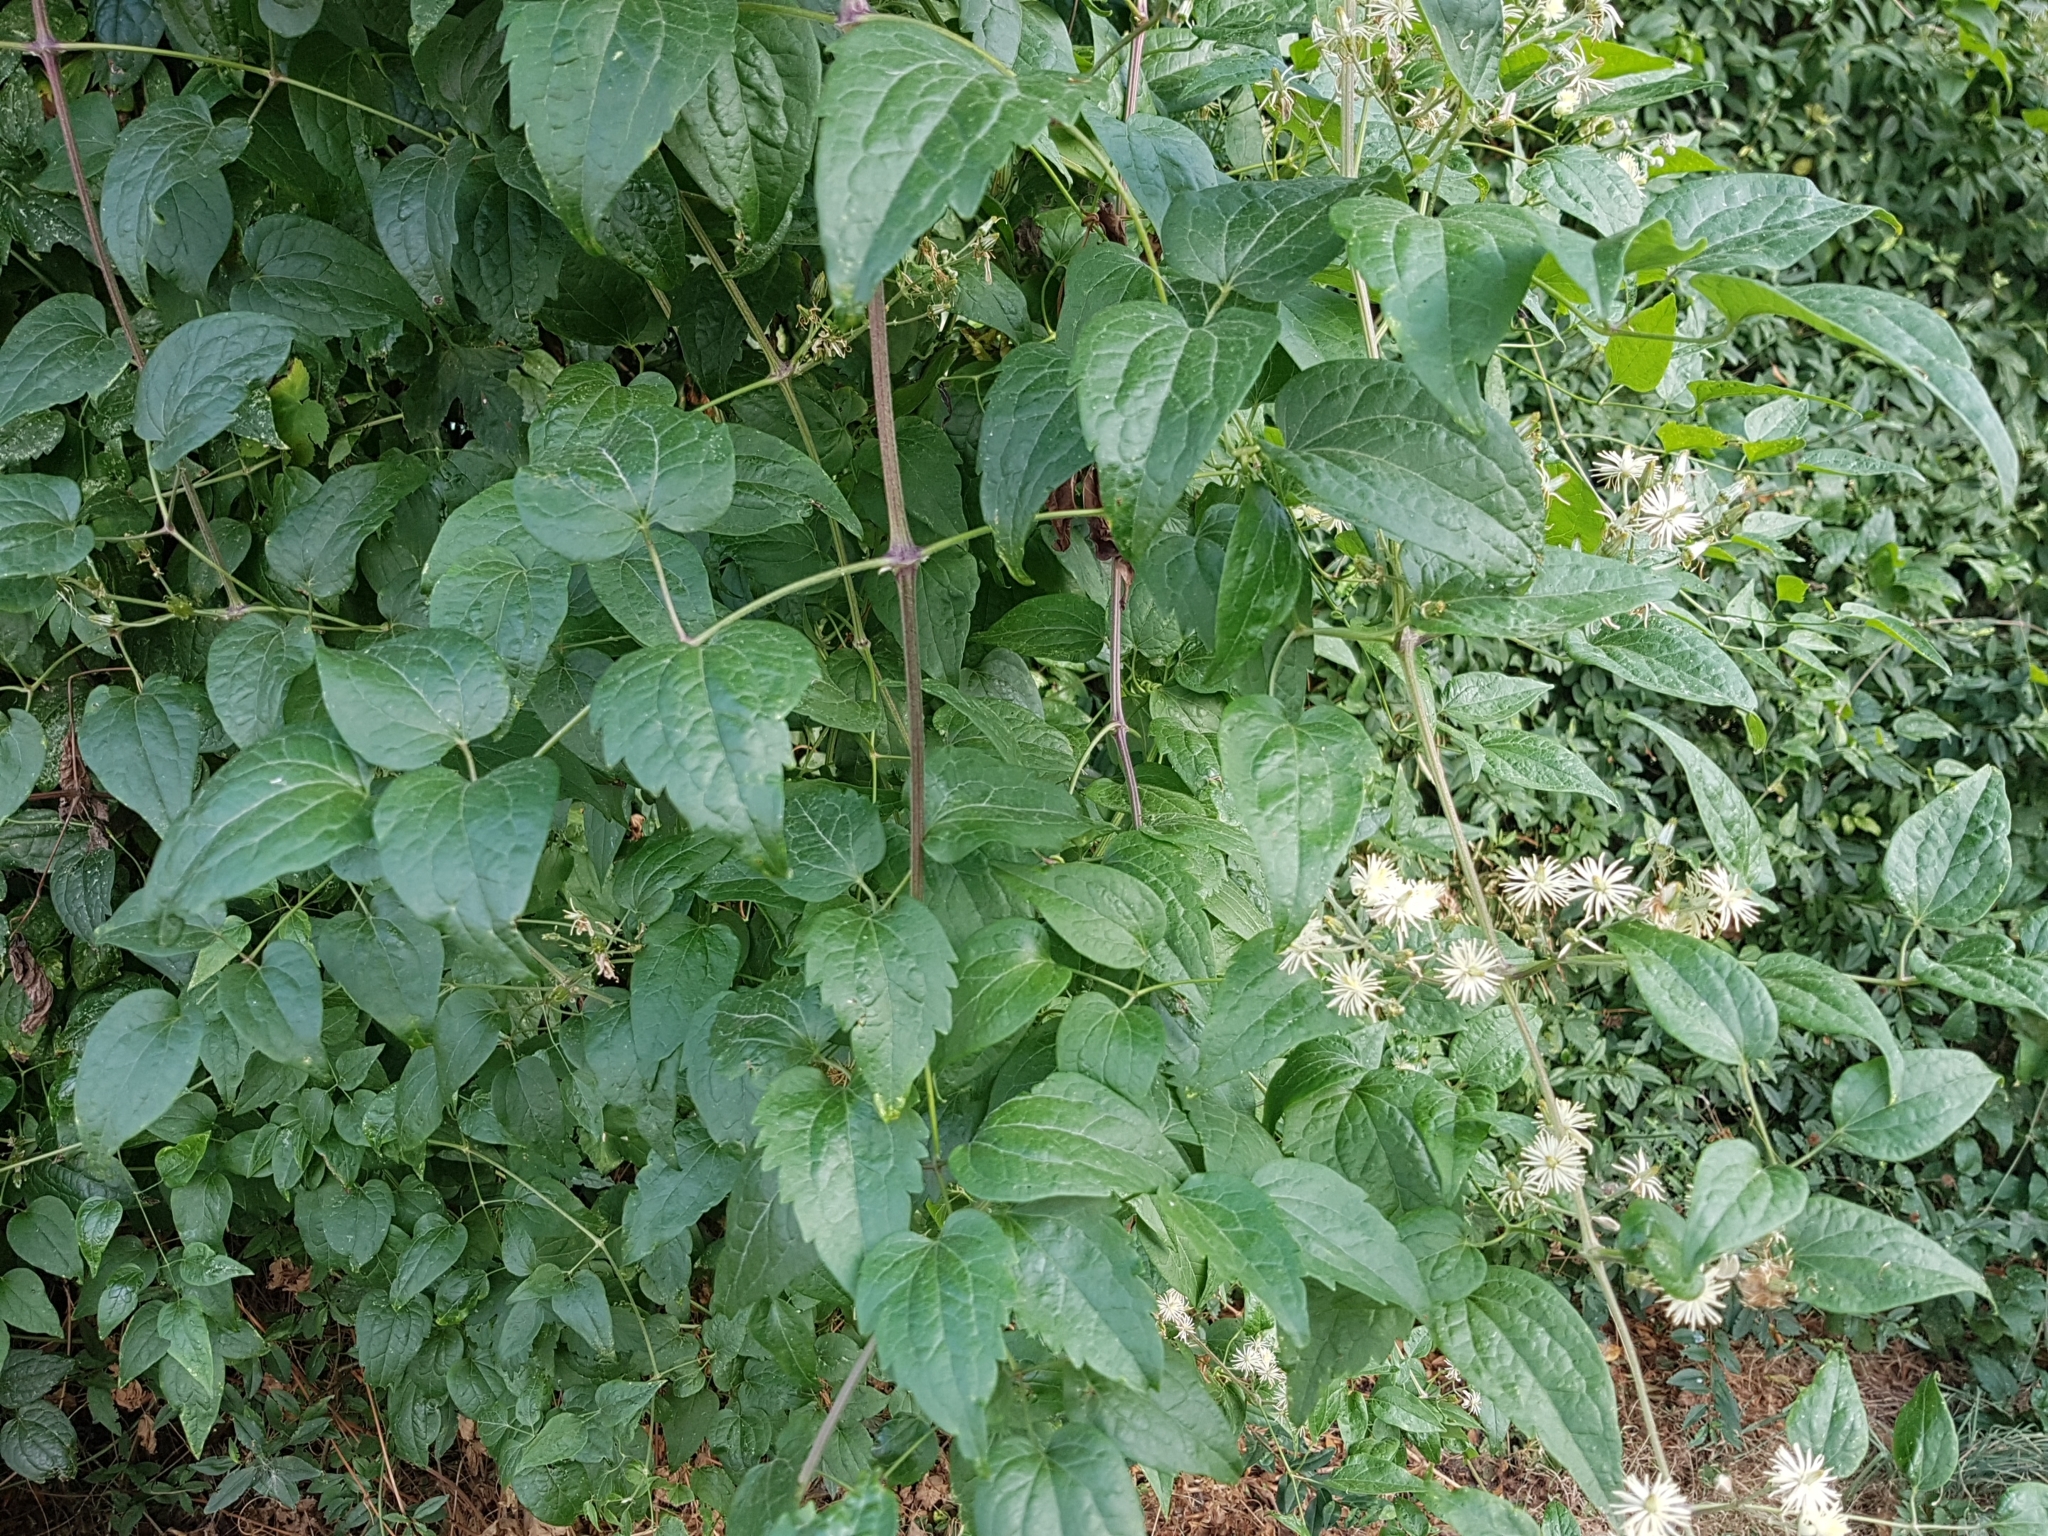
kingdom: Plantae
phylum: Tracheophyta
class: Magnoliopsida
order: Ranunculales
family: Ranunculaceae
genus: Clematis
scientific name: Clematis vitalba
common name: Evergreen clematis
